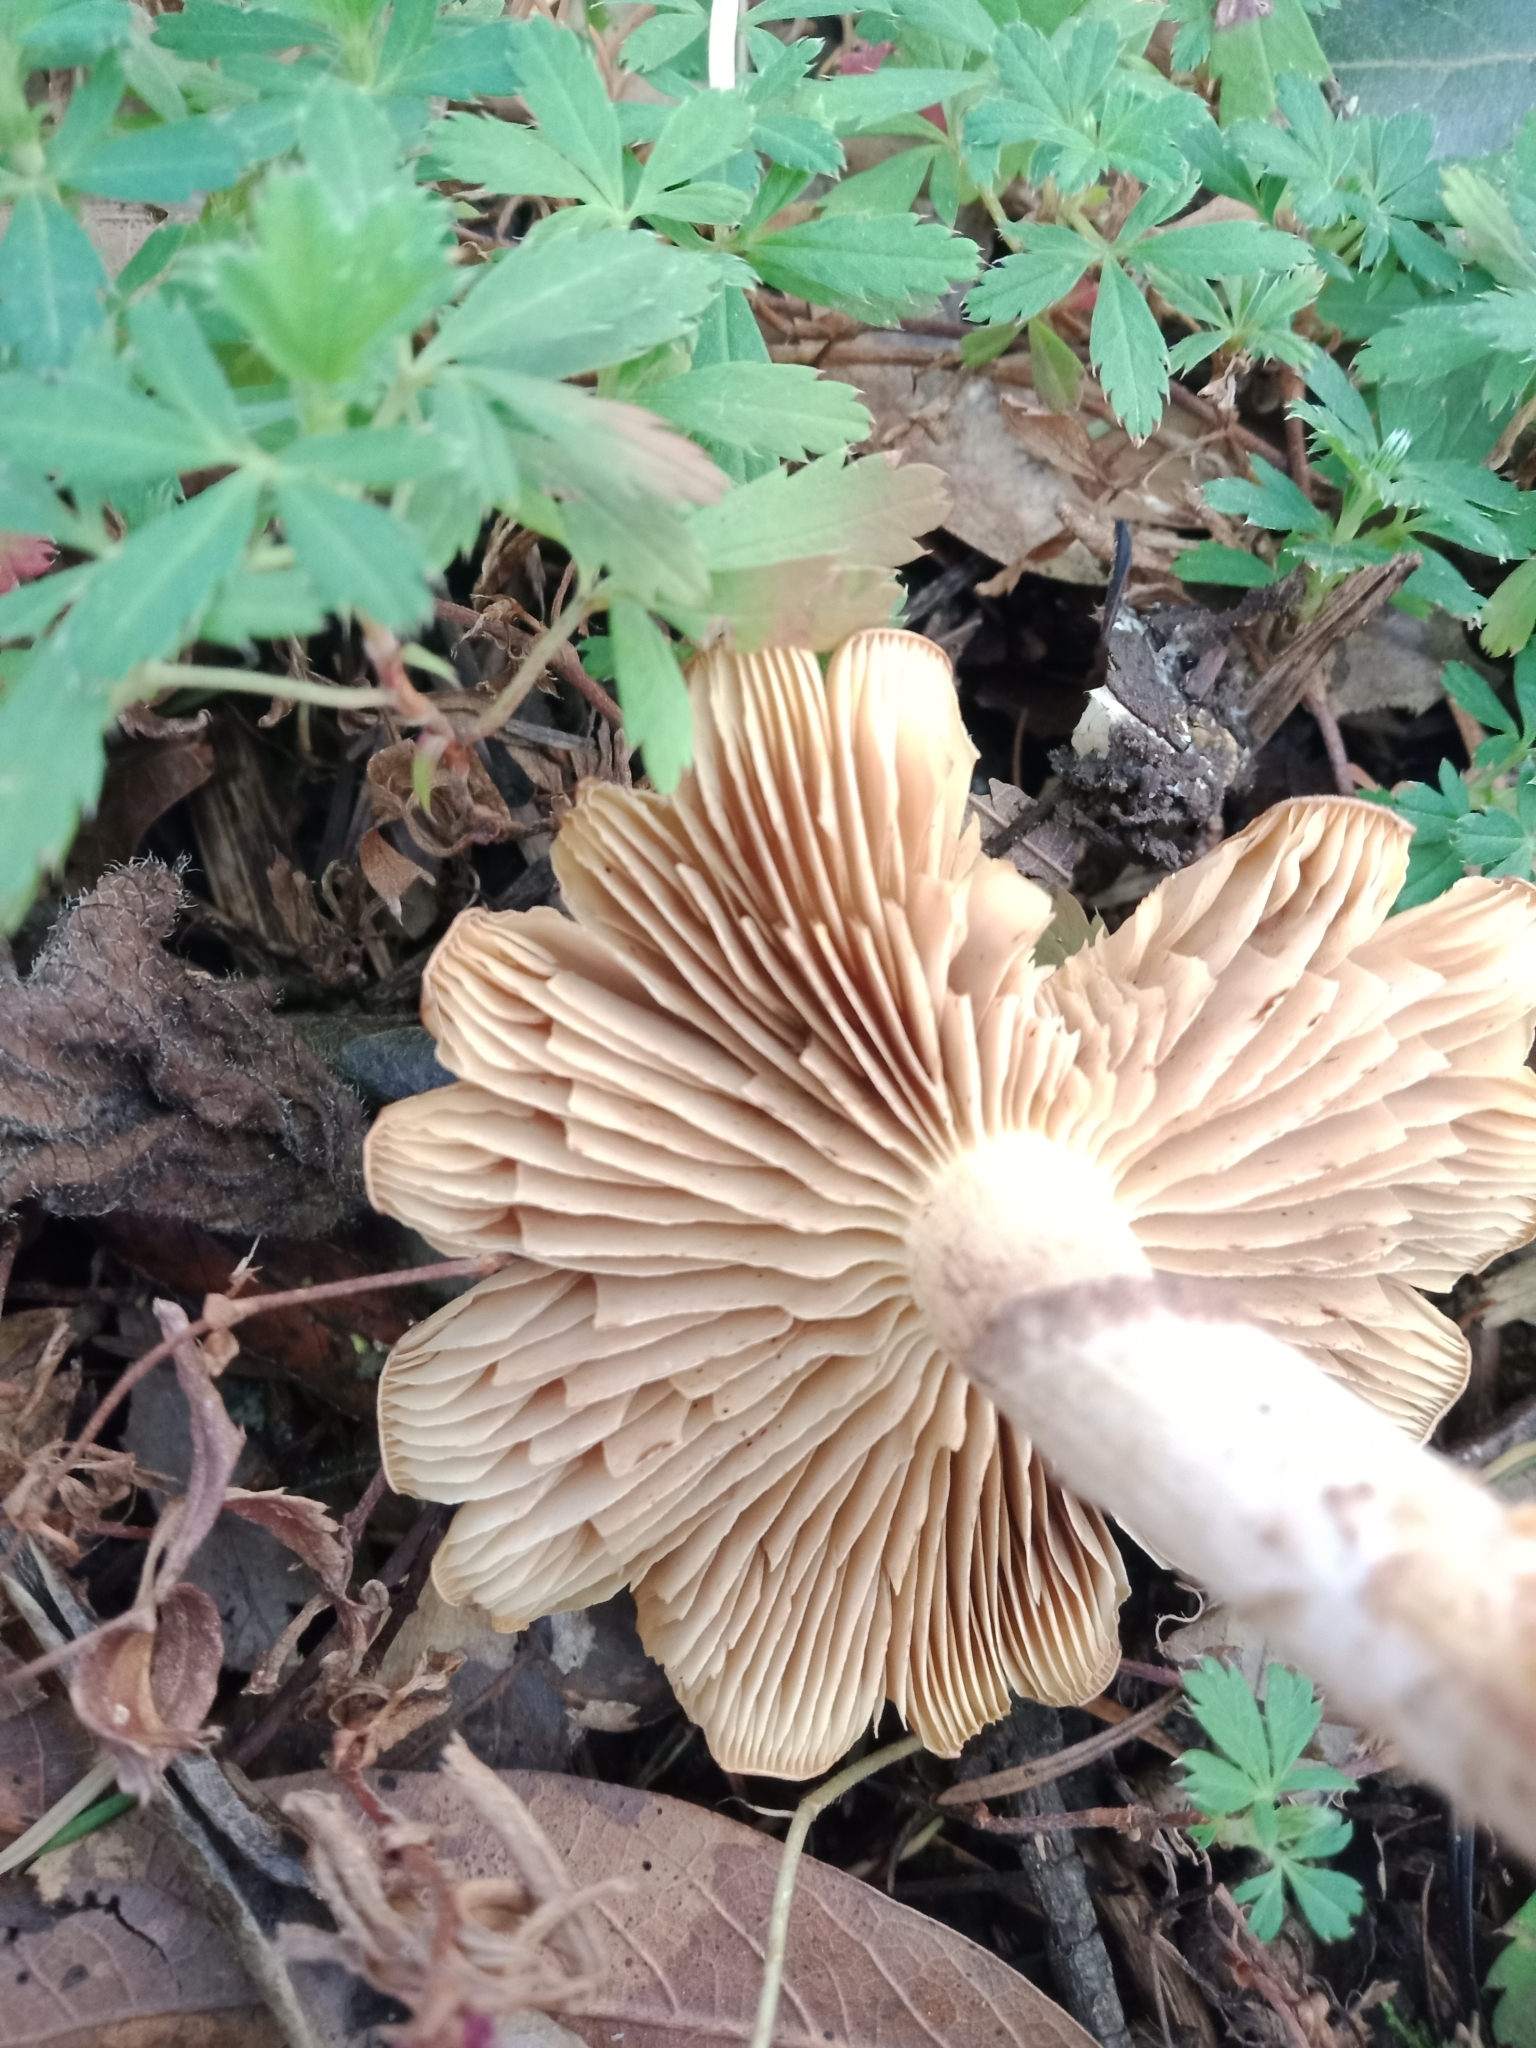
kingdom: Fungi
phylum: Basidiomycota
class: Agaricomycetes
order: Agaricales
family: Strophariaceae
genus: Pholiota
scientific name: Pholiota spumosa
